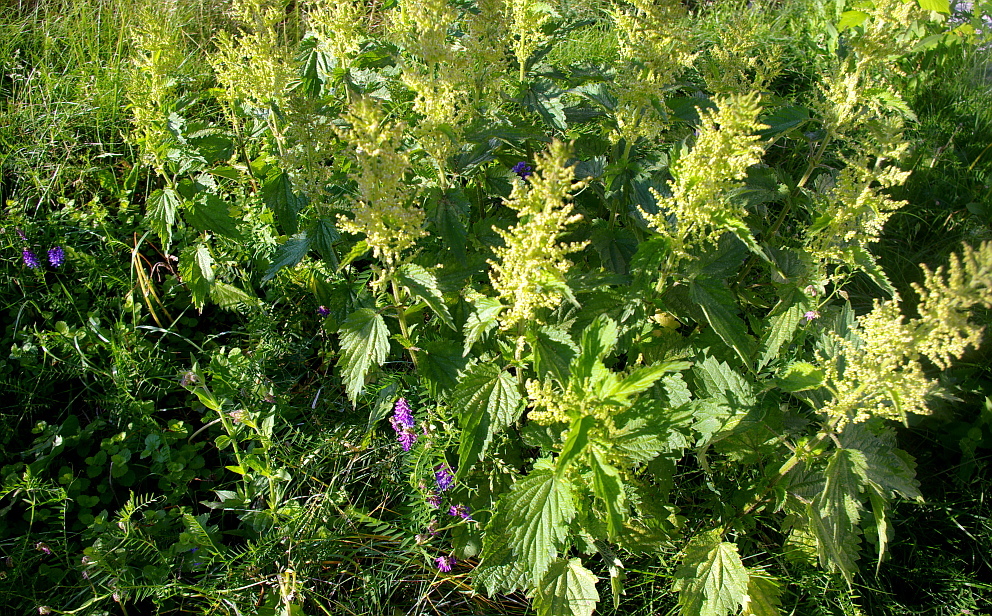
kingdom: Plantae
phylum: Tracheophyta
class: Magnoliopsida
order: Rosales
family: Urticaceae
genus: Urtica
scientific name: Urtica dioica
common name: Common nettle
